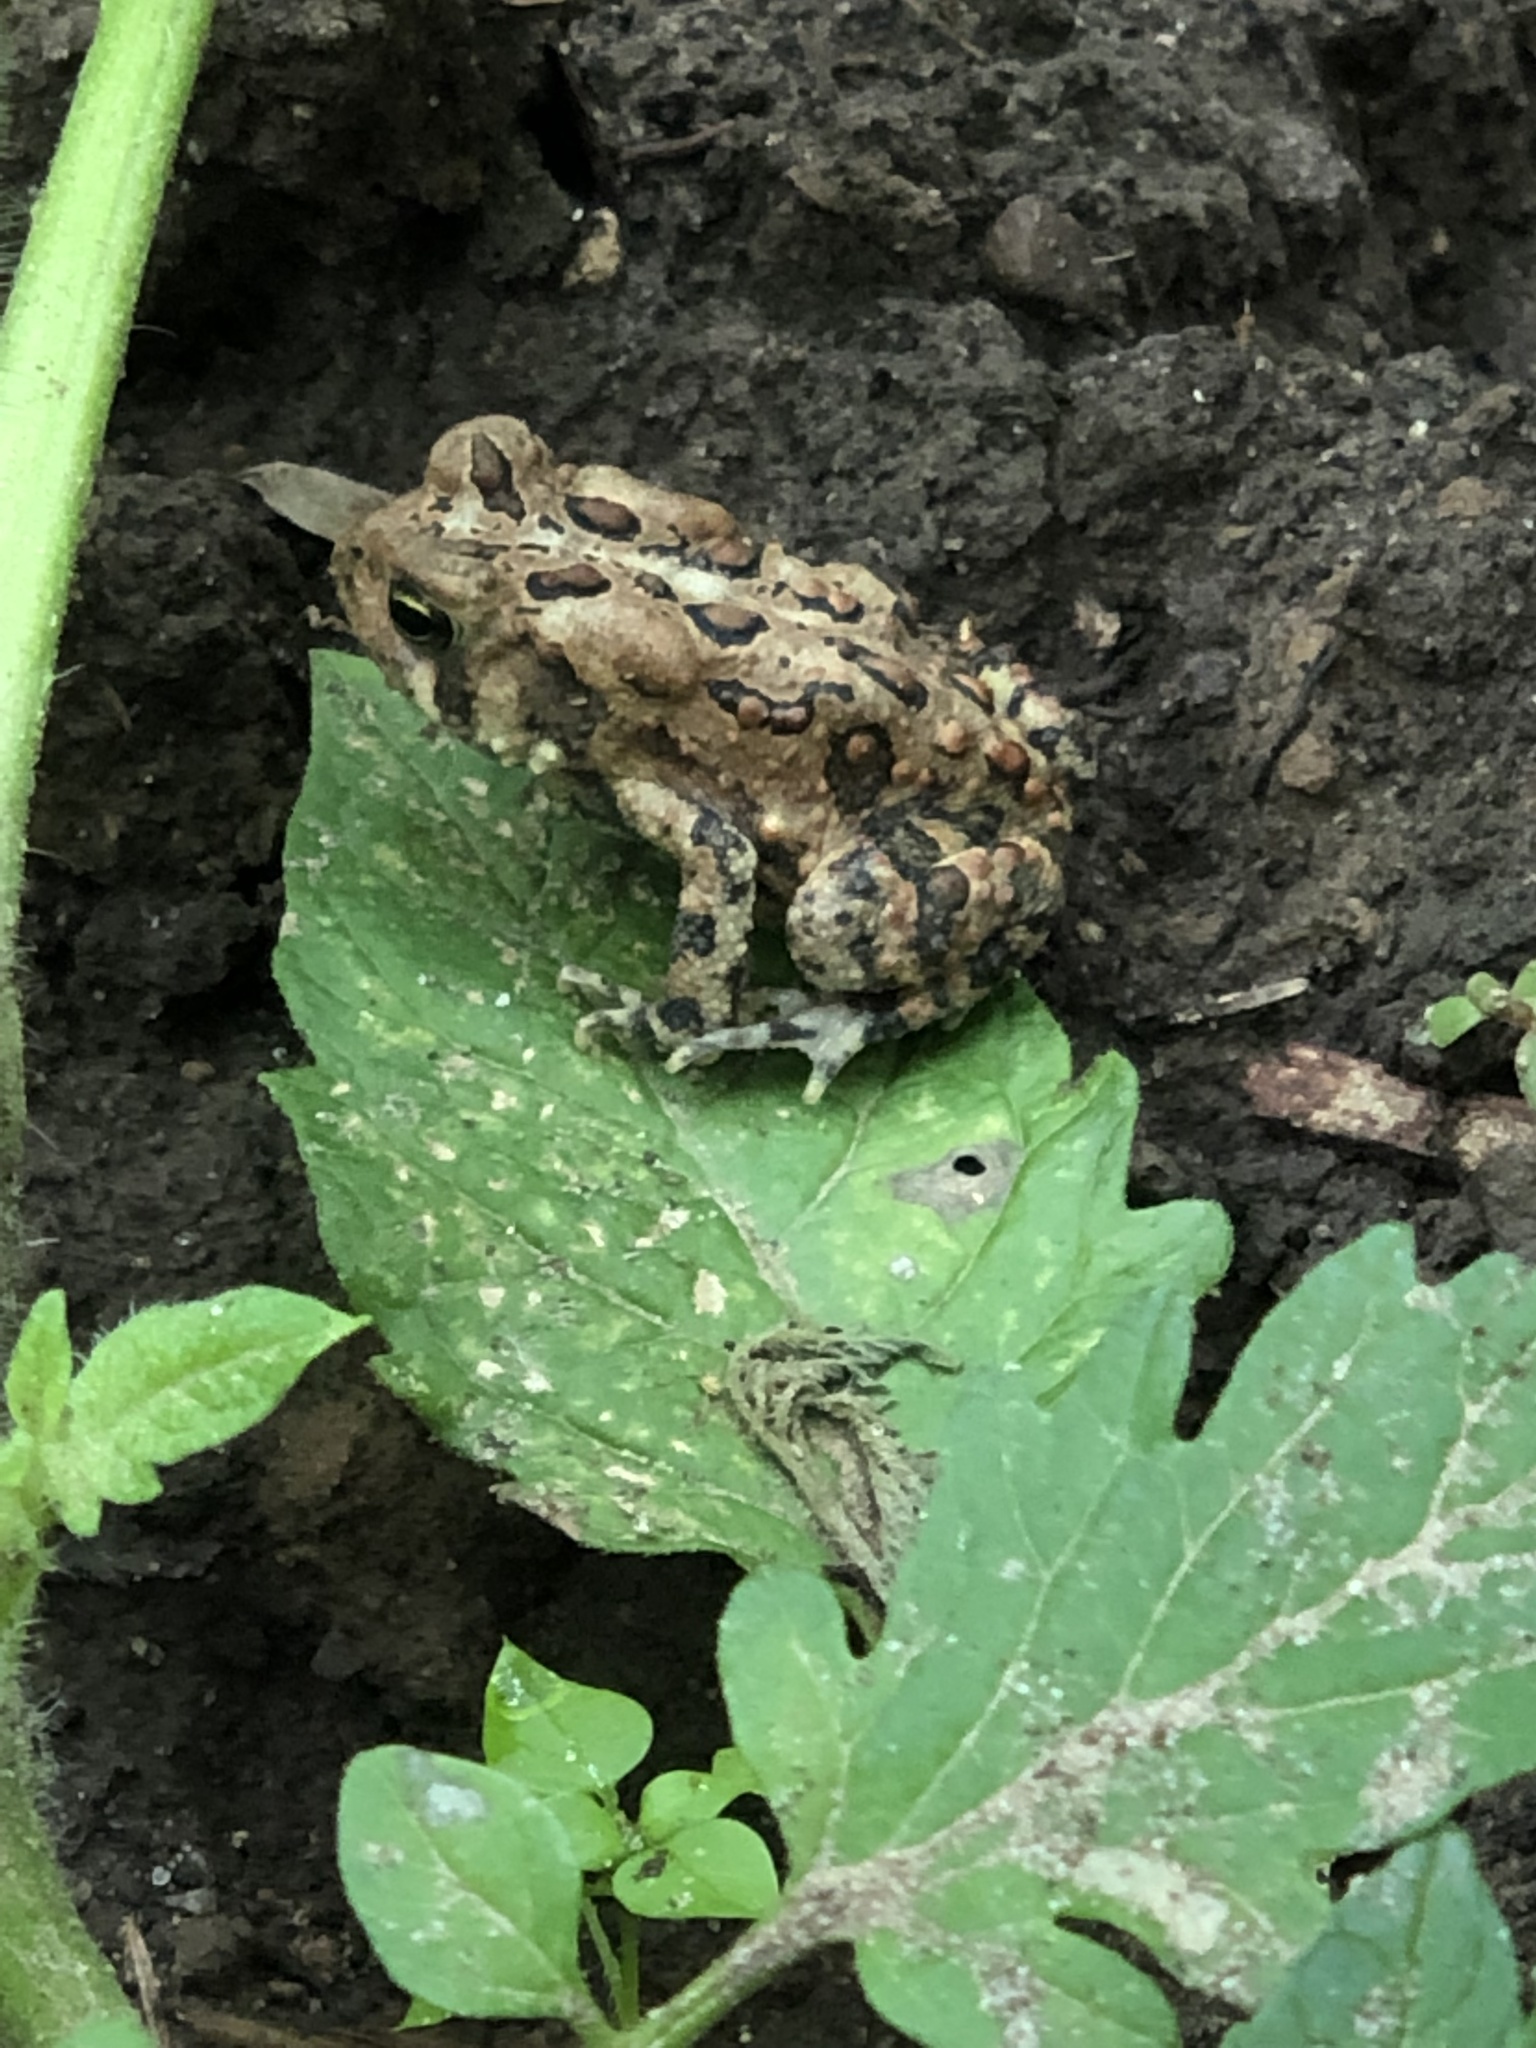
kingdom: Animalia
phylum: Chordata
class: Amphibia
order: Anura
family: Bufonidae
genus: Anaxyrus
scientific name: Anaxyrus americanus
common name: American toad
